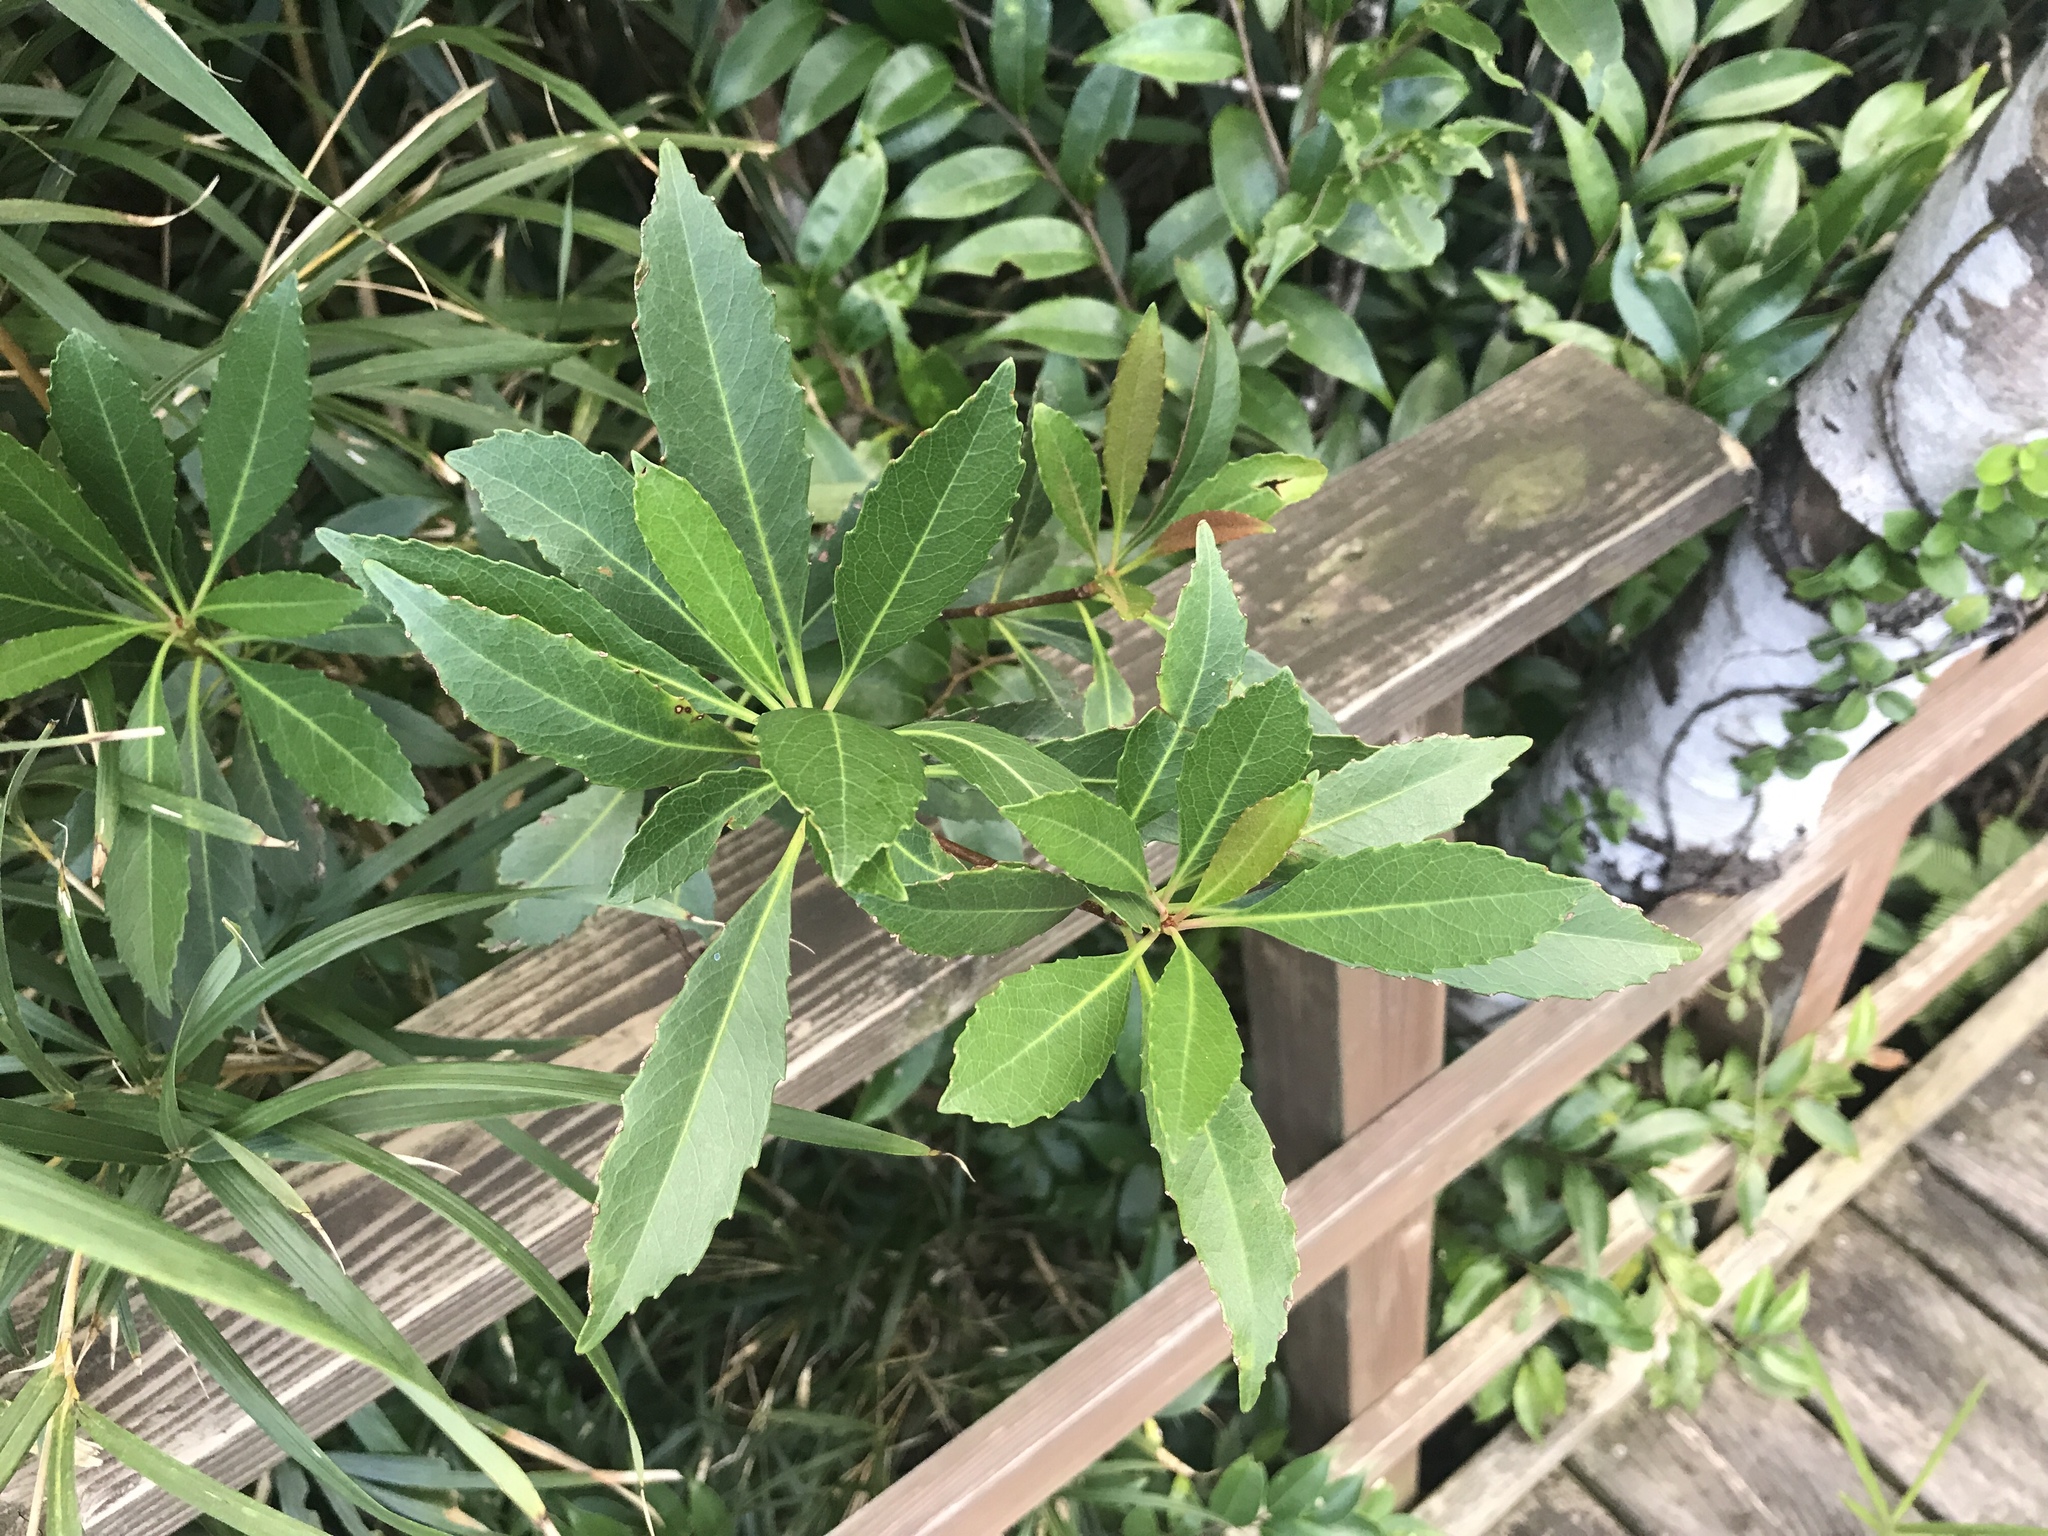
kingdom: Plantae
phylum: Tracheophyta
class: Magnoliopsida
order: Rosales
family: Rosaceae
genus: Rhaphiolepis
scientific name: Rhaphiolepis indica
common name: India-hawthorn
